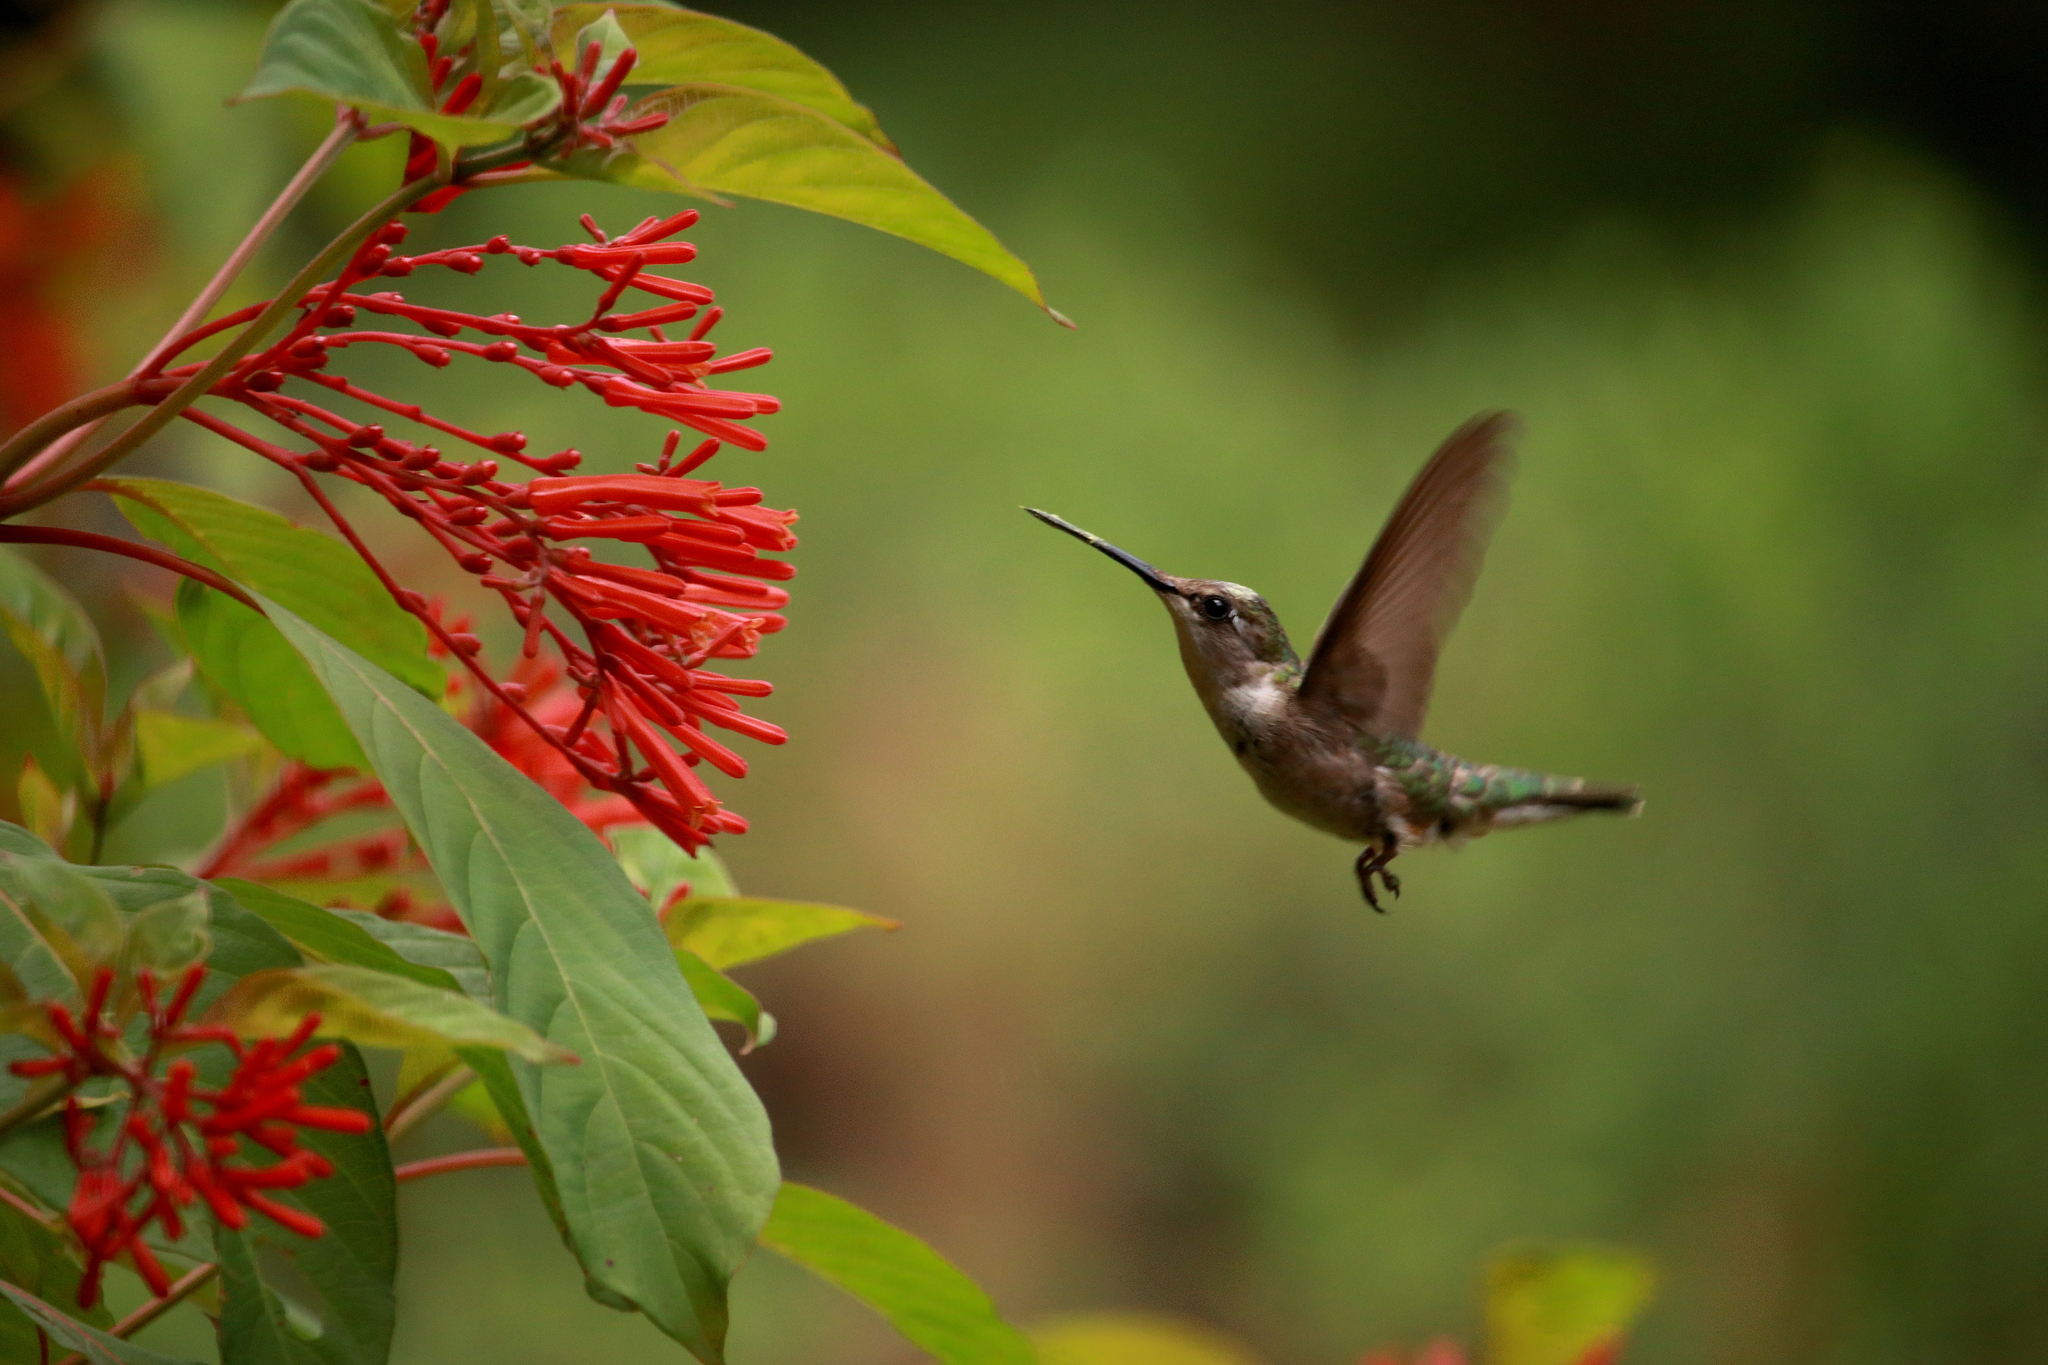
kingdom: Animalia
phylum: Chordata
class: Aves
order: Apodiformes
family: Trochilidae
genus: Archilochus
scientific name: Archilochus colubris
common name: Ruby-throated hummingbird
